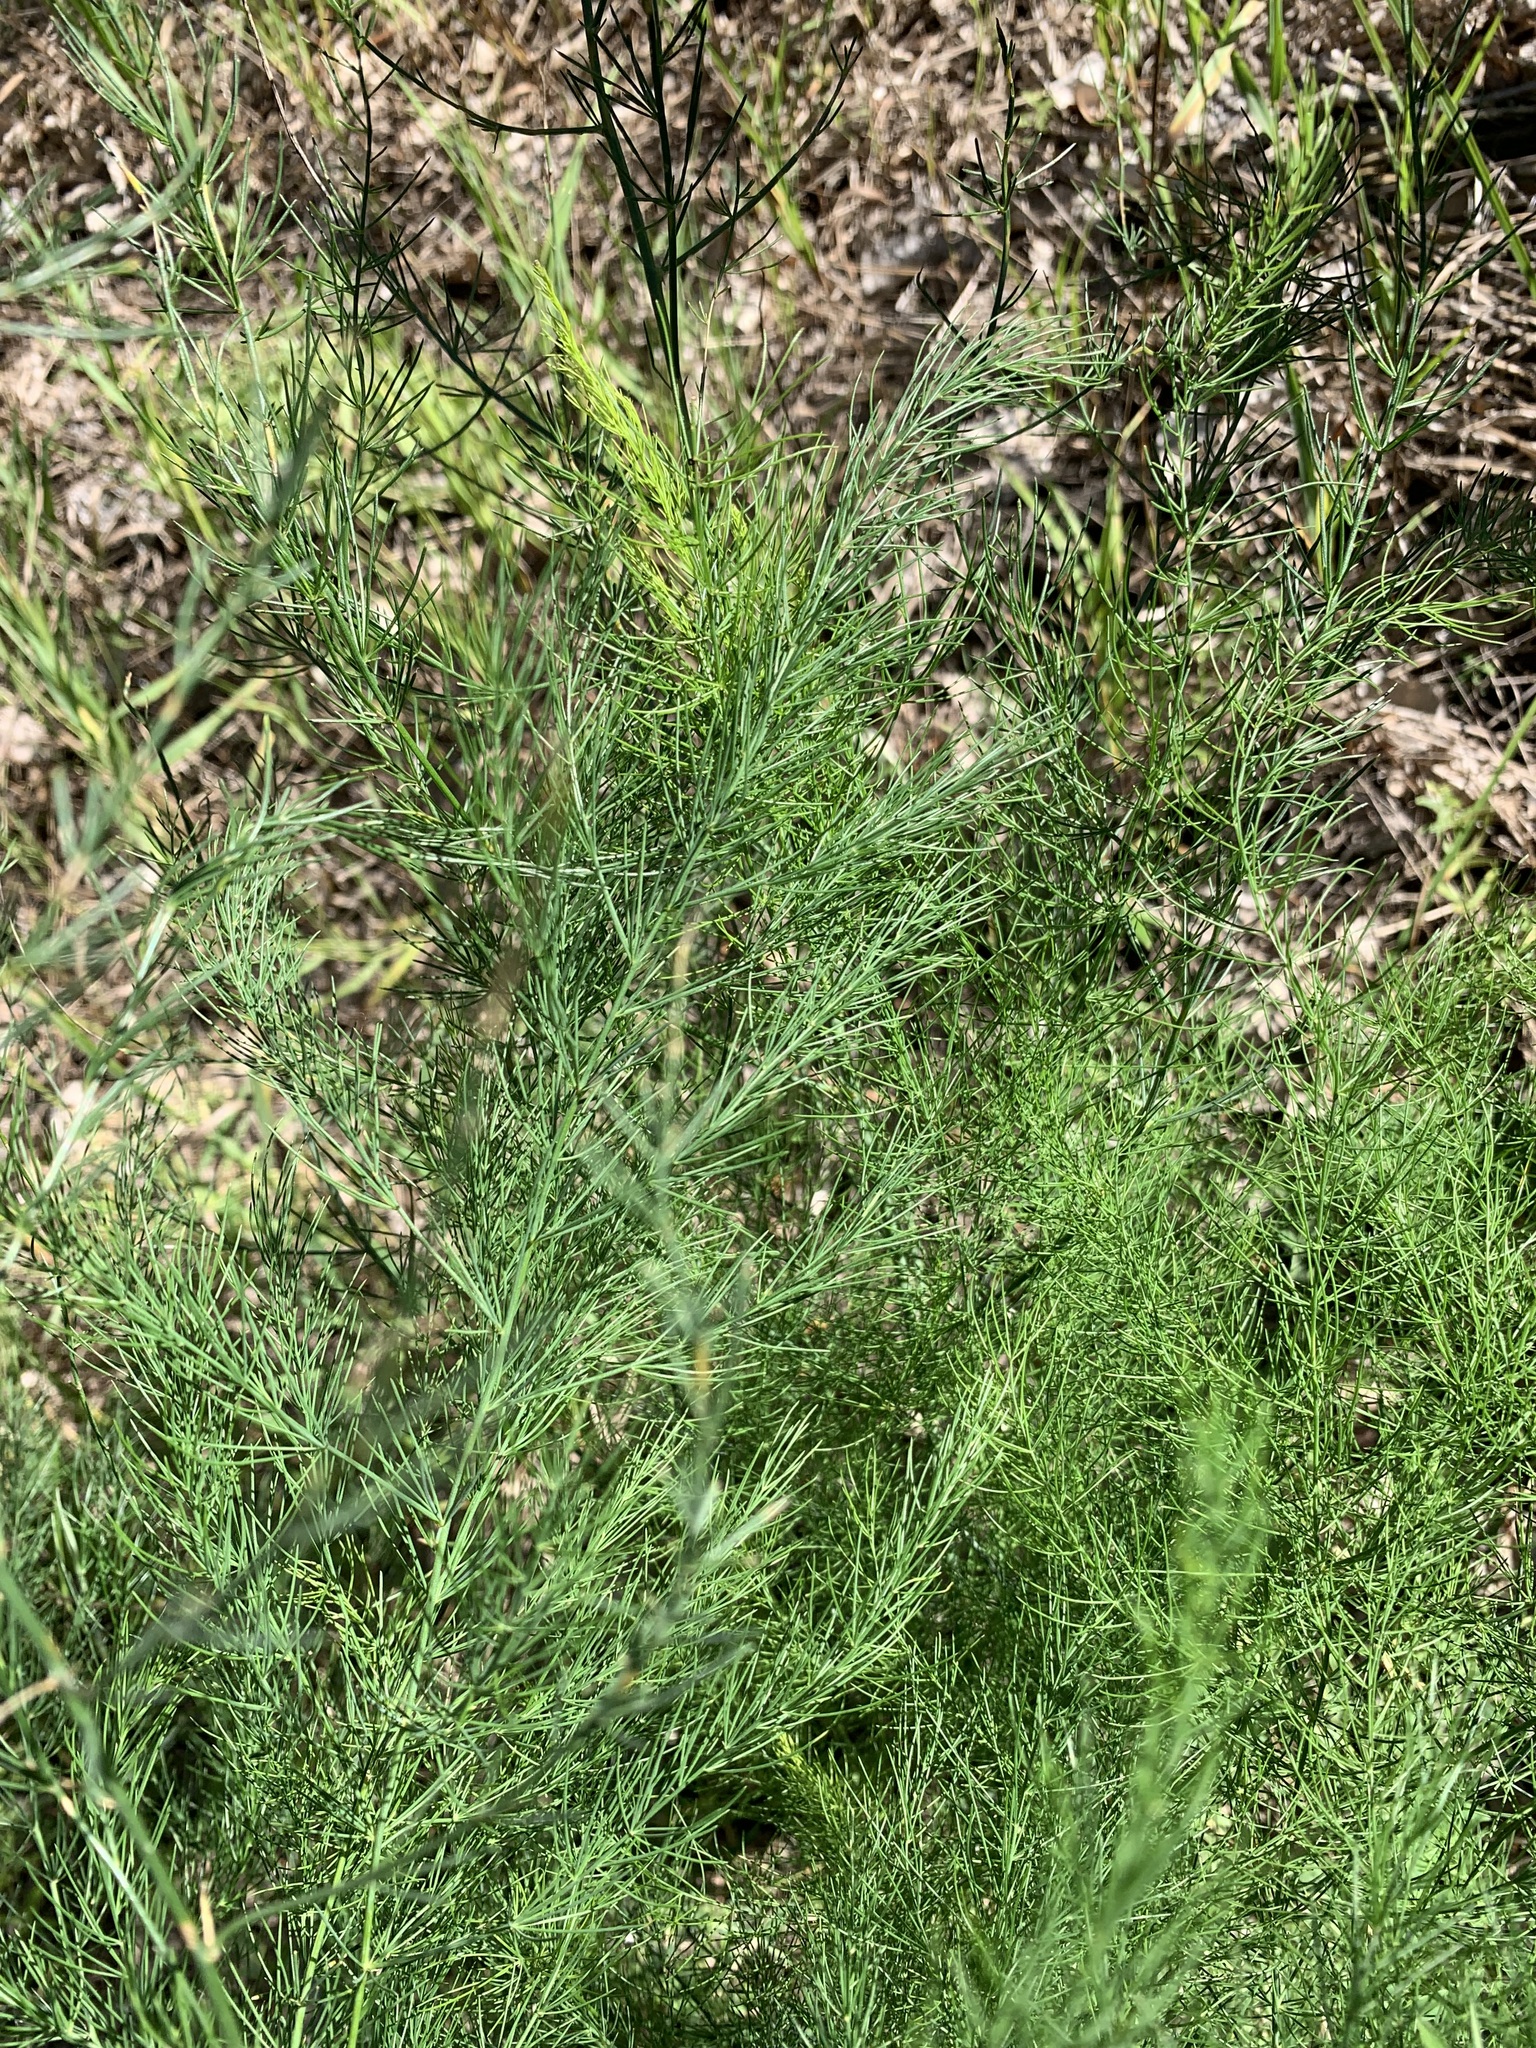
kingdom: Plantae
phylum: Tracheophyta
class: Liliopsida
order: Asparagales
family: Asparagaceae
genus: Asparagus
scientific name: Asparagus officinalis
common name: Garden asparagus
